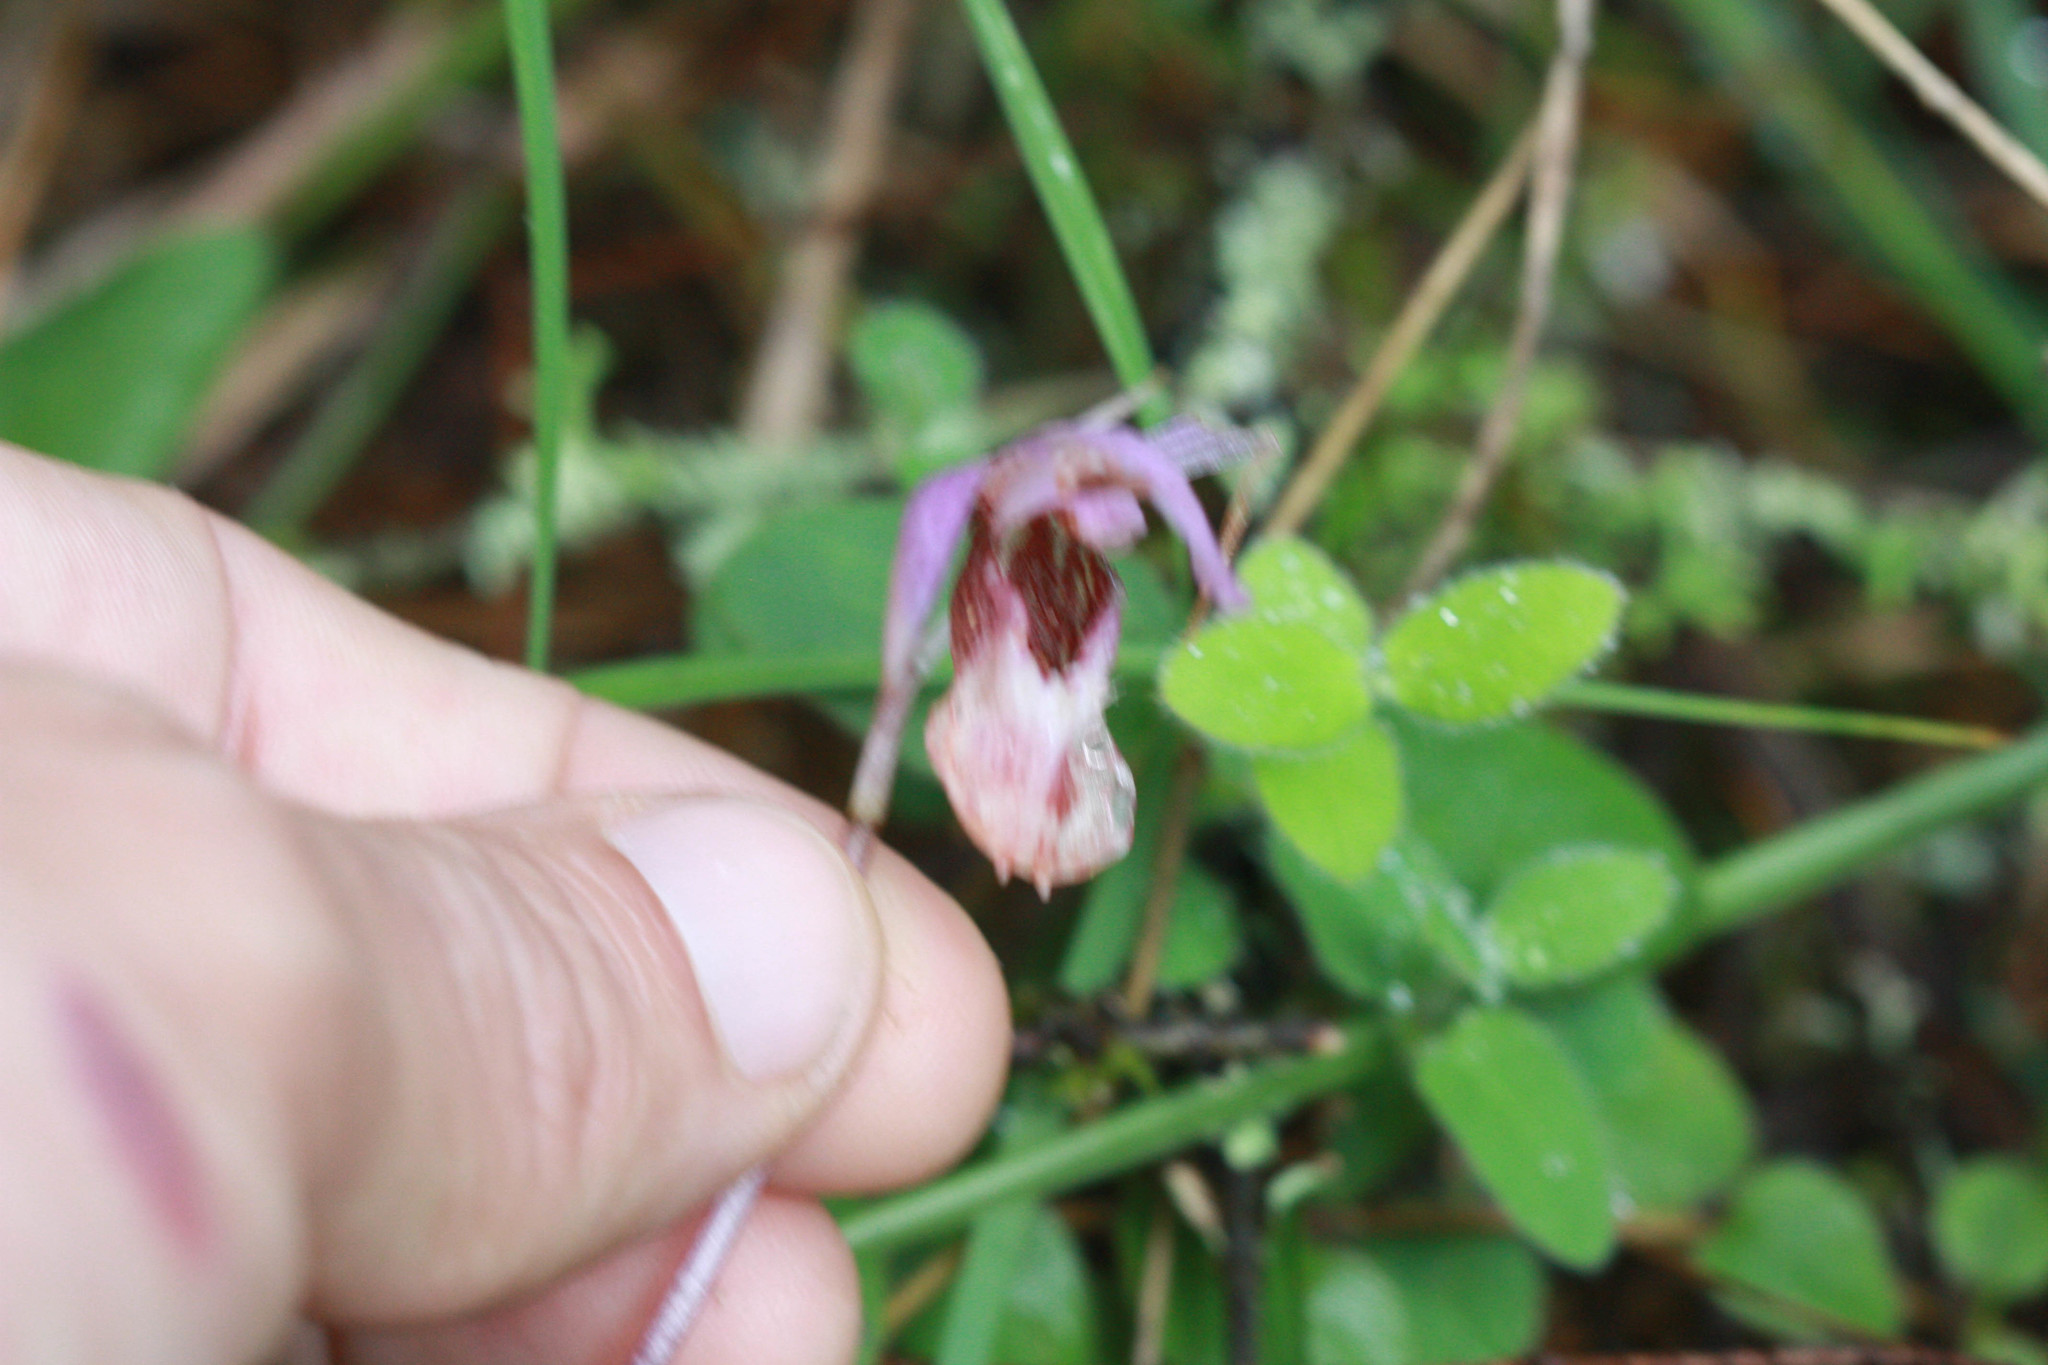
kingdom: Plantae
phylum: Tracheophyta
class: Liliopsida
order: Asparagales
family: Orchidaceae
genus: Calypso
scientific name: Calypso bulbosa
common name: Calypso
